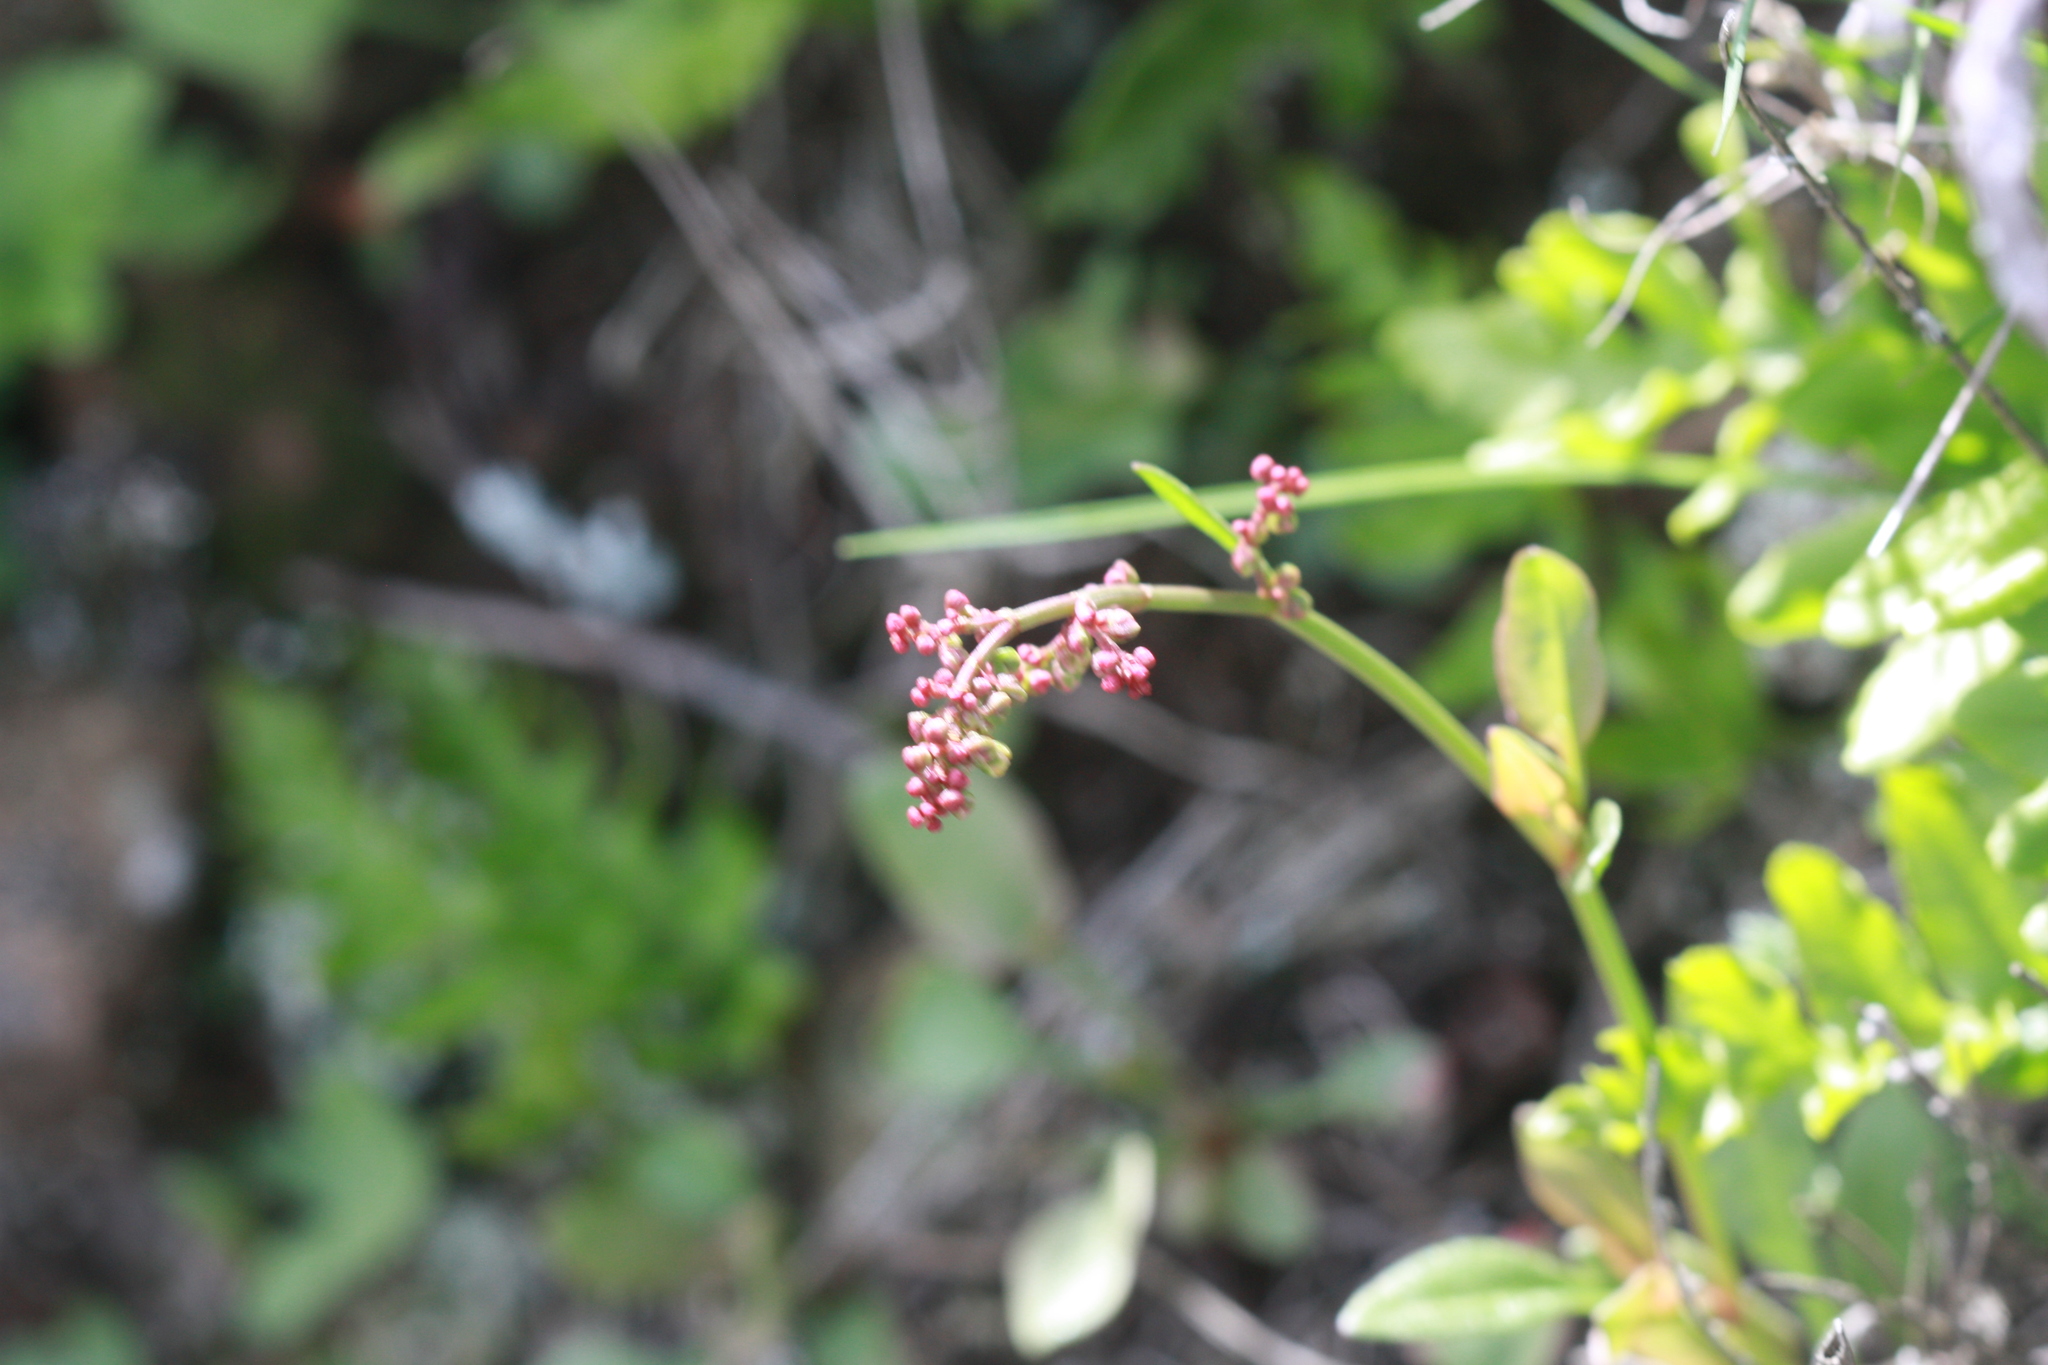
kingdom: Plantae
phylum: Tracheophyta
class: Magnoliopsida
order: Caryophyllales
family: Polygonaceae
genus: Rumex
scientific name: Rumex acetosella
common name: Common sheep sorrel
